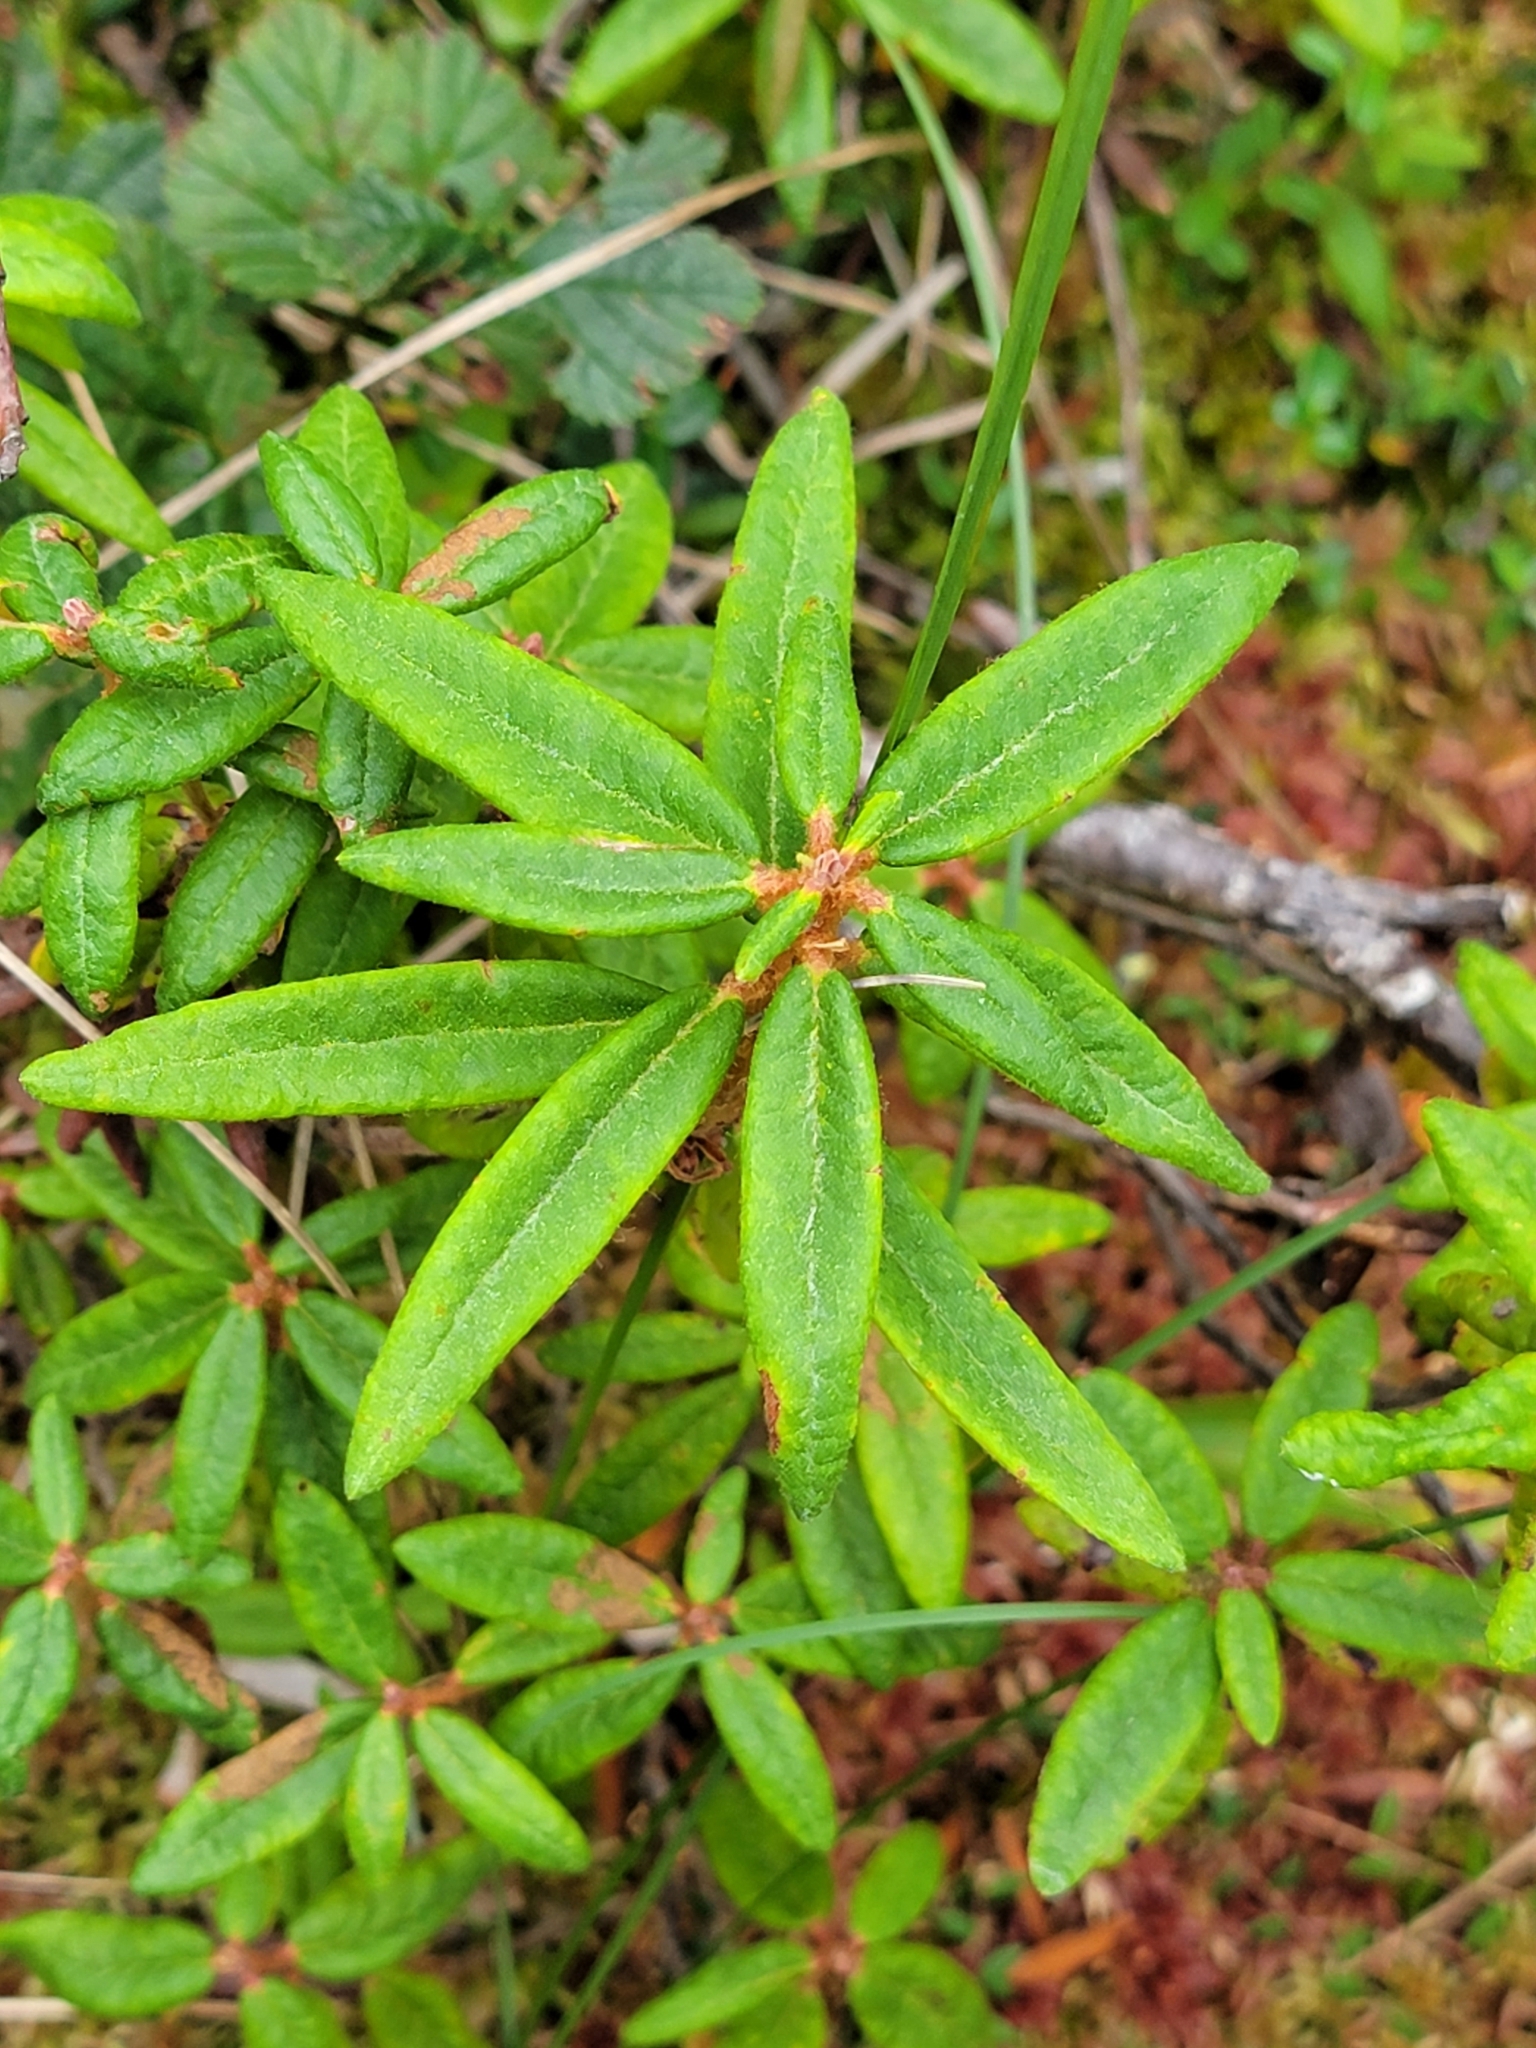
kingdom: Plantae
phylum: Tracheophyta
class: Magnoliopsida
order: Ericales
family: Ericaceae
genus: Rhododendron
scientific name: Rhododendron groenlandicum
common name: Bog labrador tea
